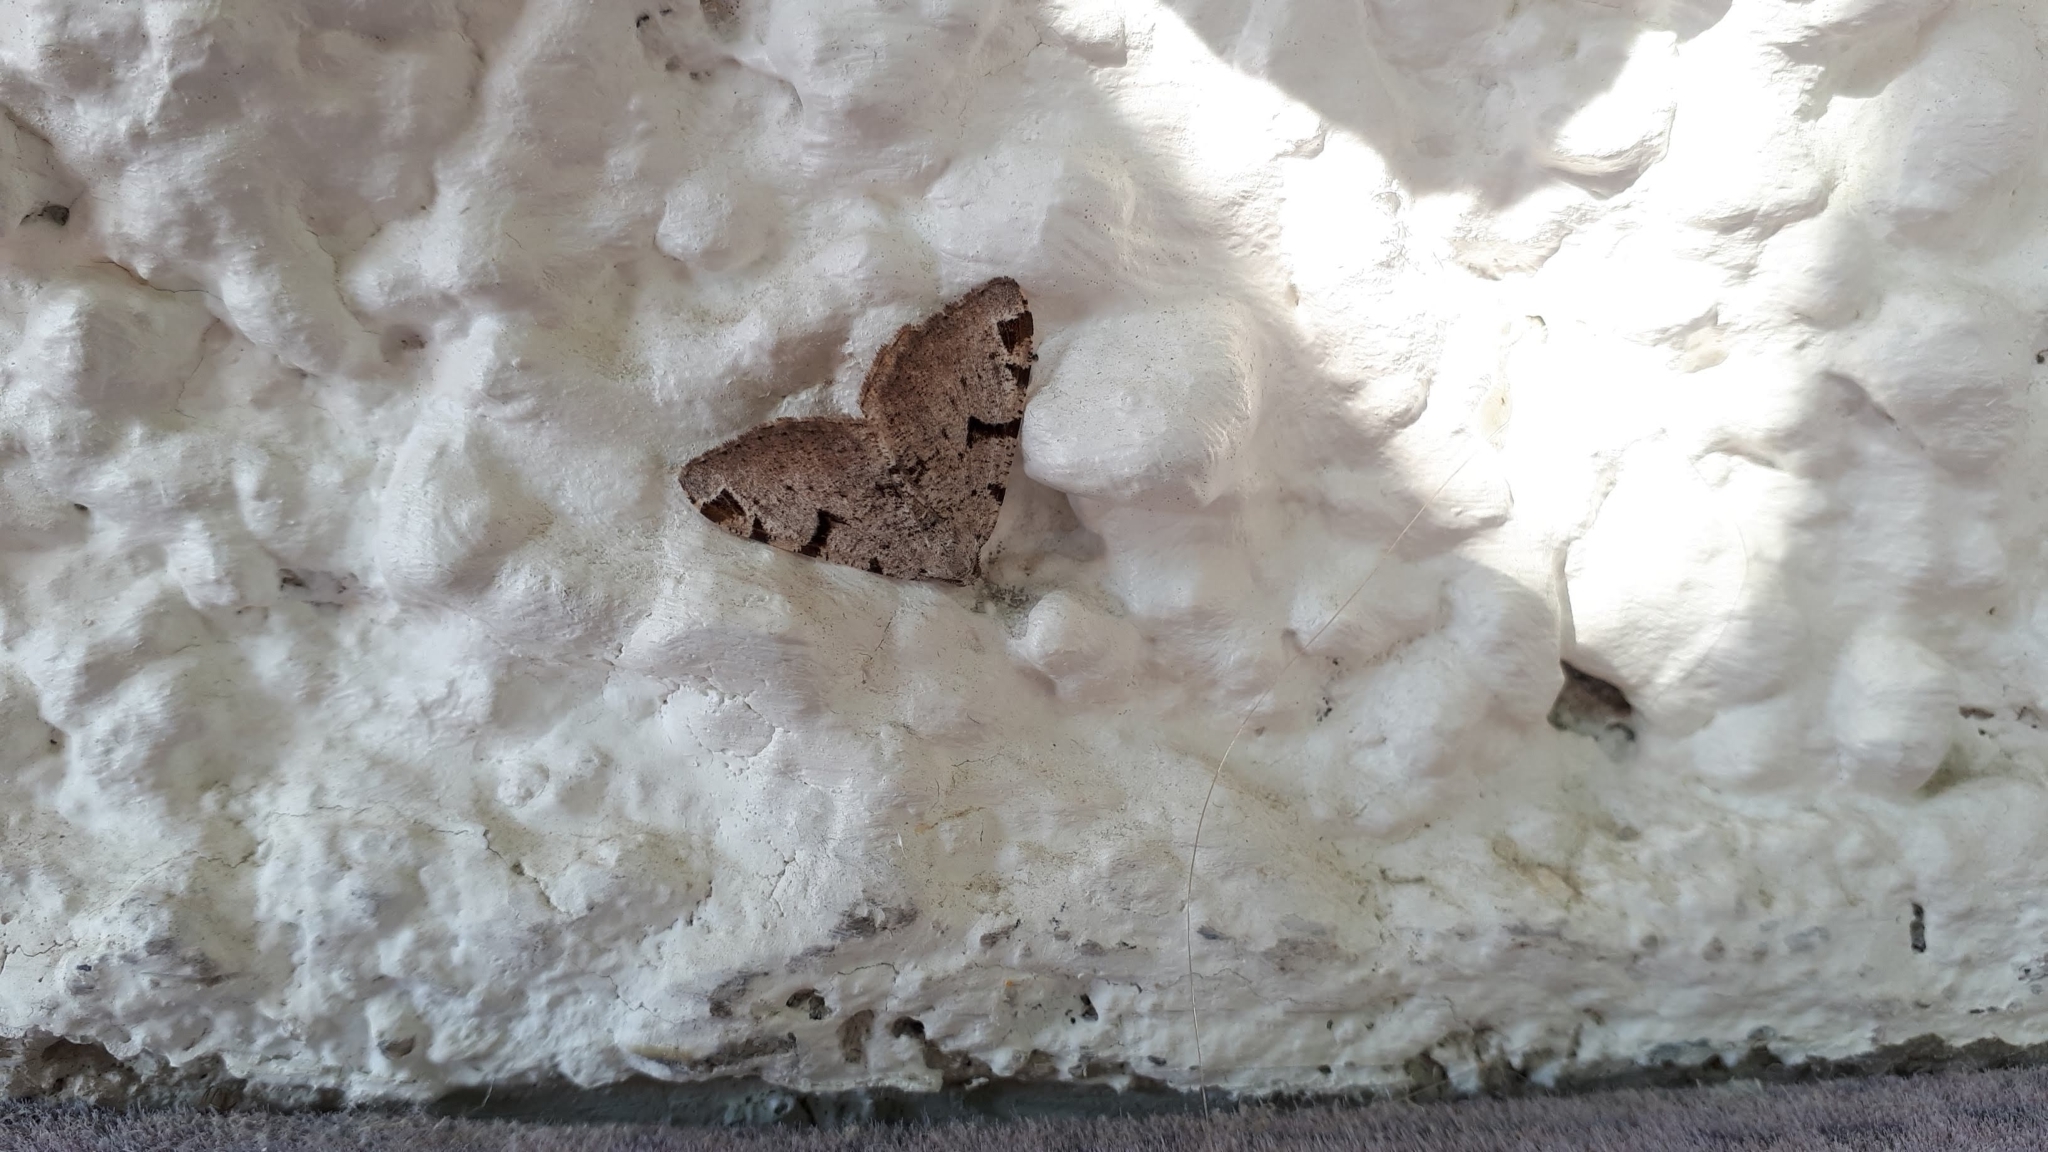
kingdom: Animalia
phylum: Arthropoda
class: Insecta
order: Lepidoptera
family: Geometridae
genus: Macaria
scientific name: Macaria wauaria
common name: V-moth
